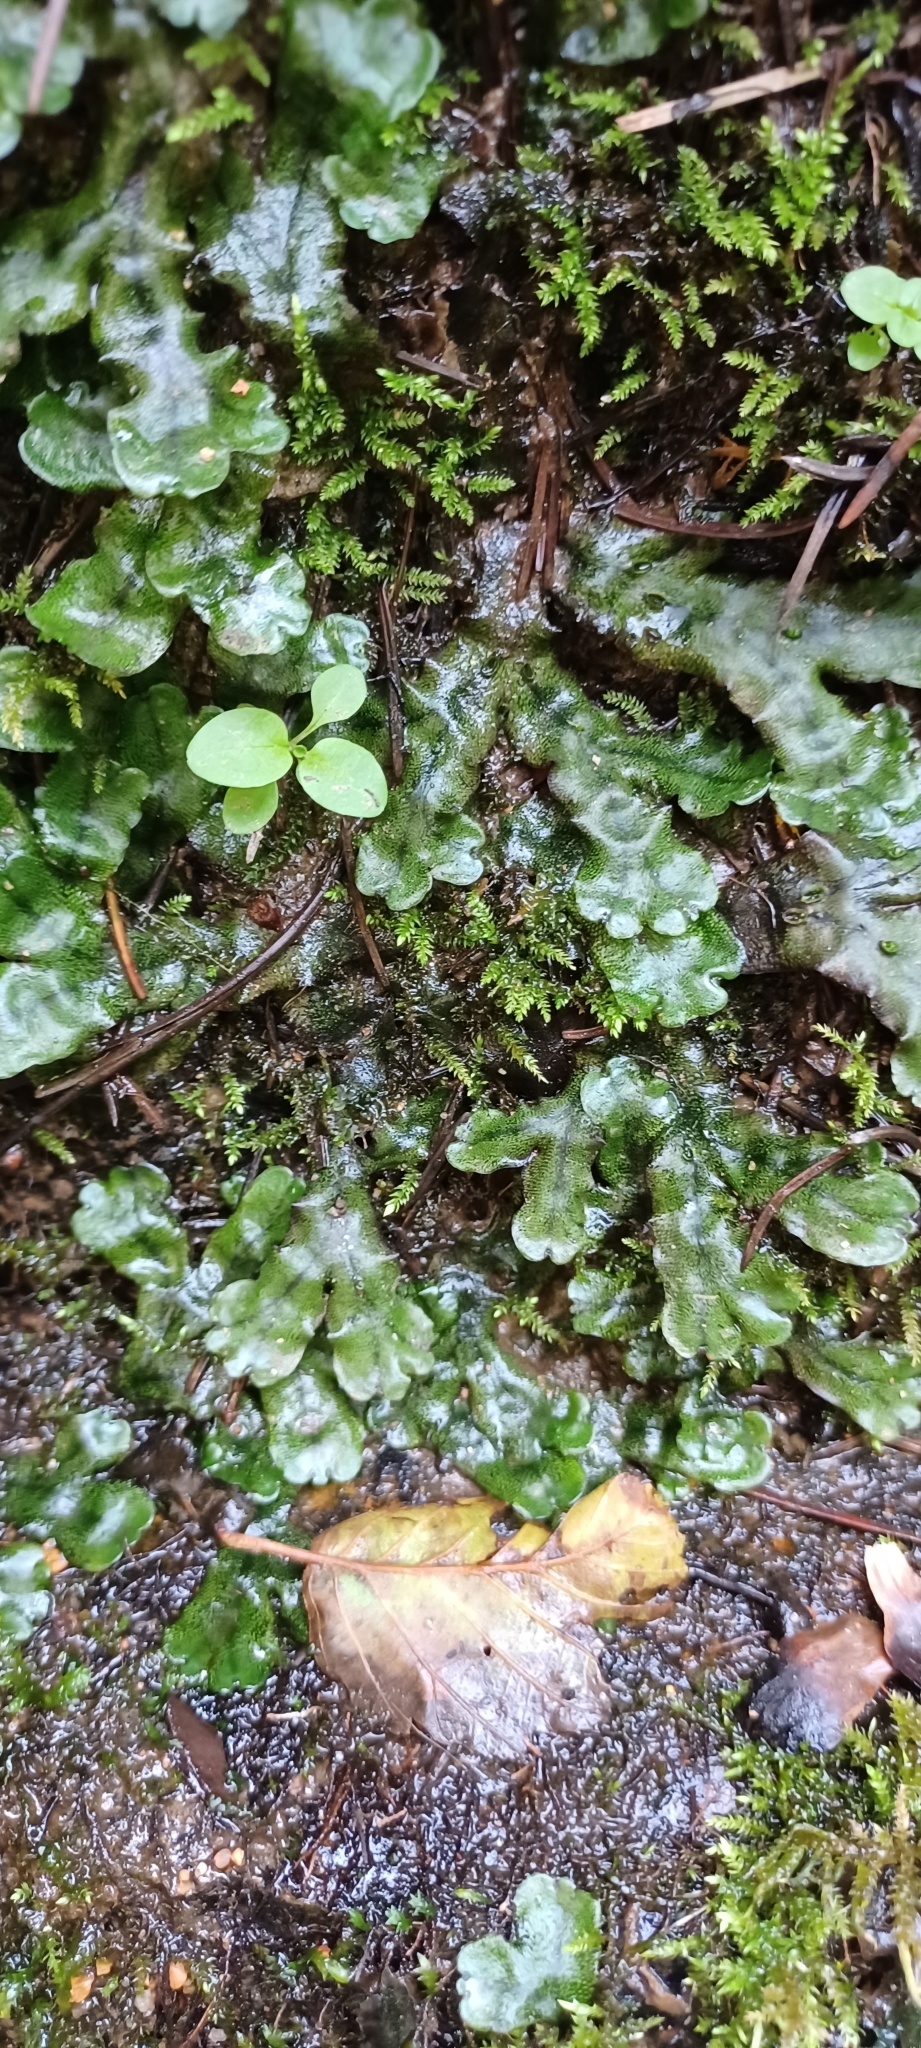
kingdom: Plantae
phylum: Marchantiophyta
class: Marchantiopsida
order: Marchantiales
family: Marchantiaceae
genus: Marchantia
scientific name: Marchantia polymorpha
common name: Common liverwort
